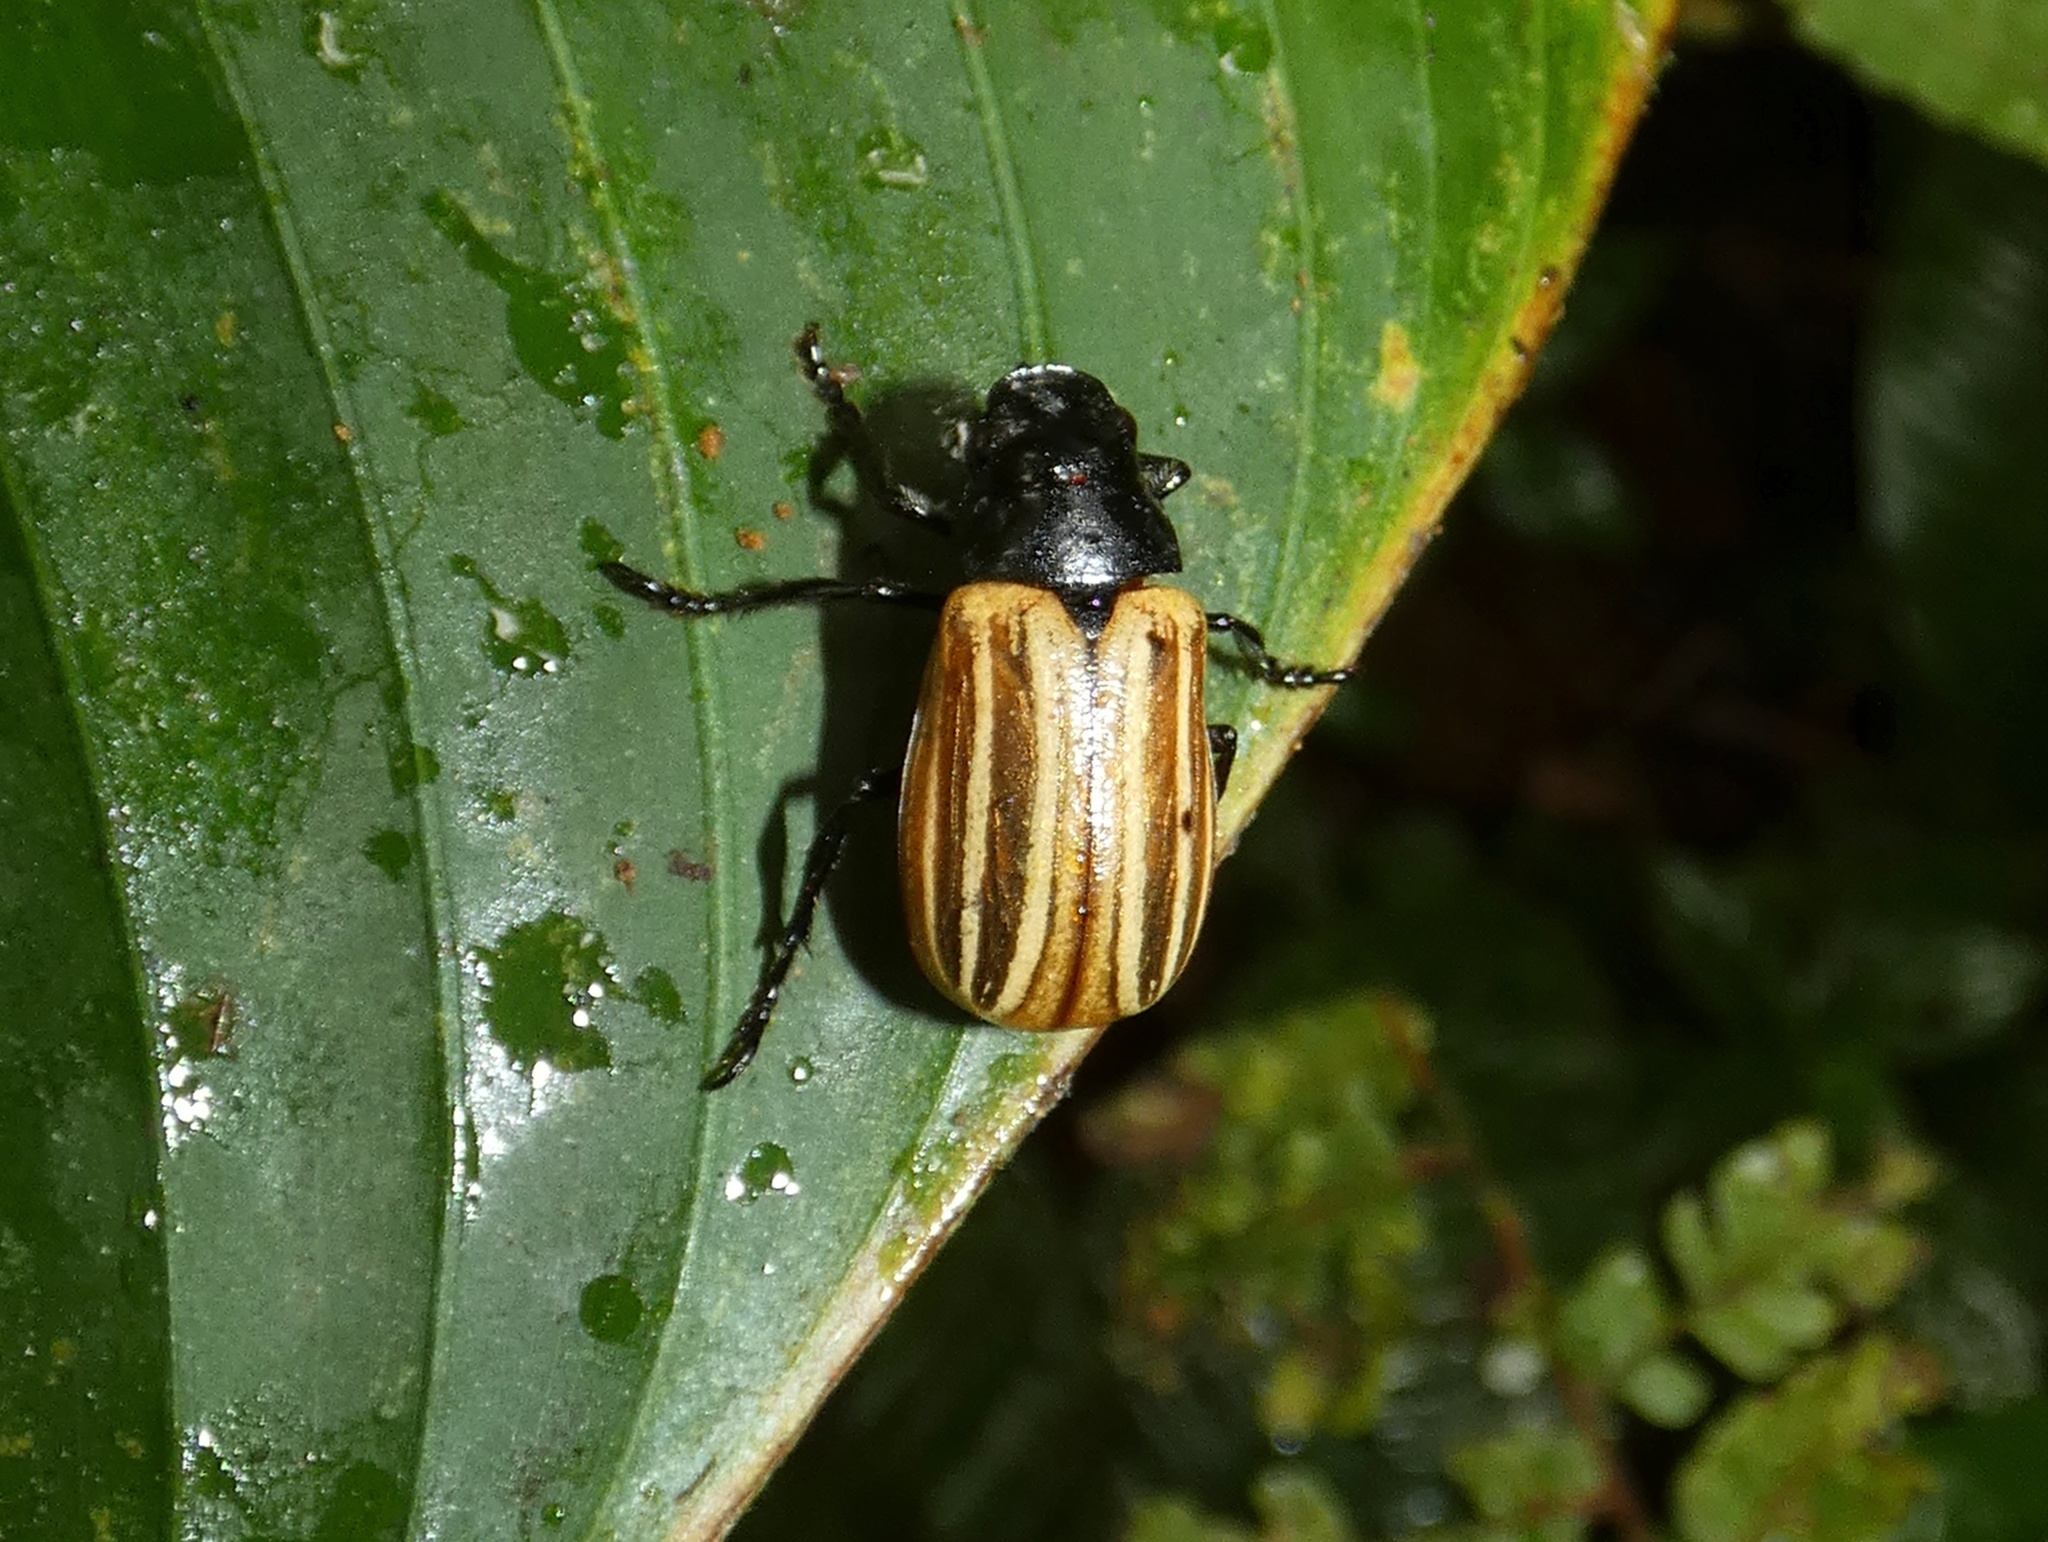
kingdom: Animalia
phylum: Arthropoda
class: Insecta
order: Coleoptera
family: Scarabaeidae
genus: Bolax
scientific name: Bolax magna
